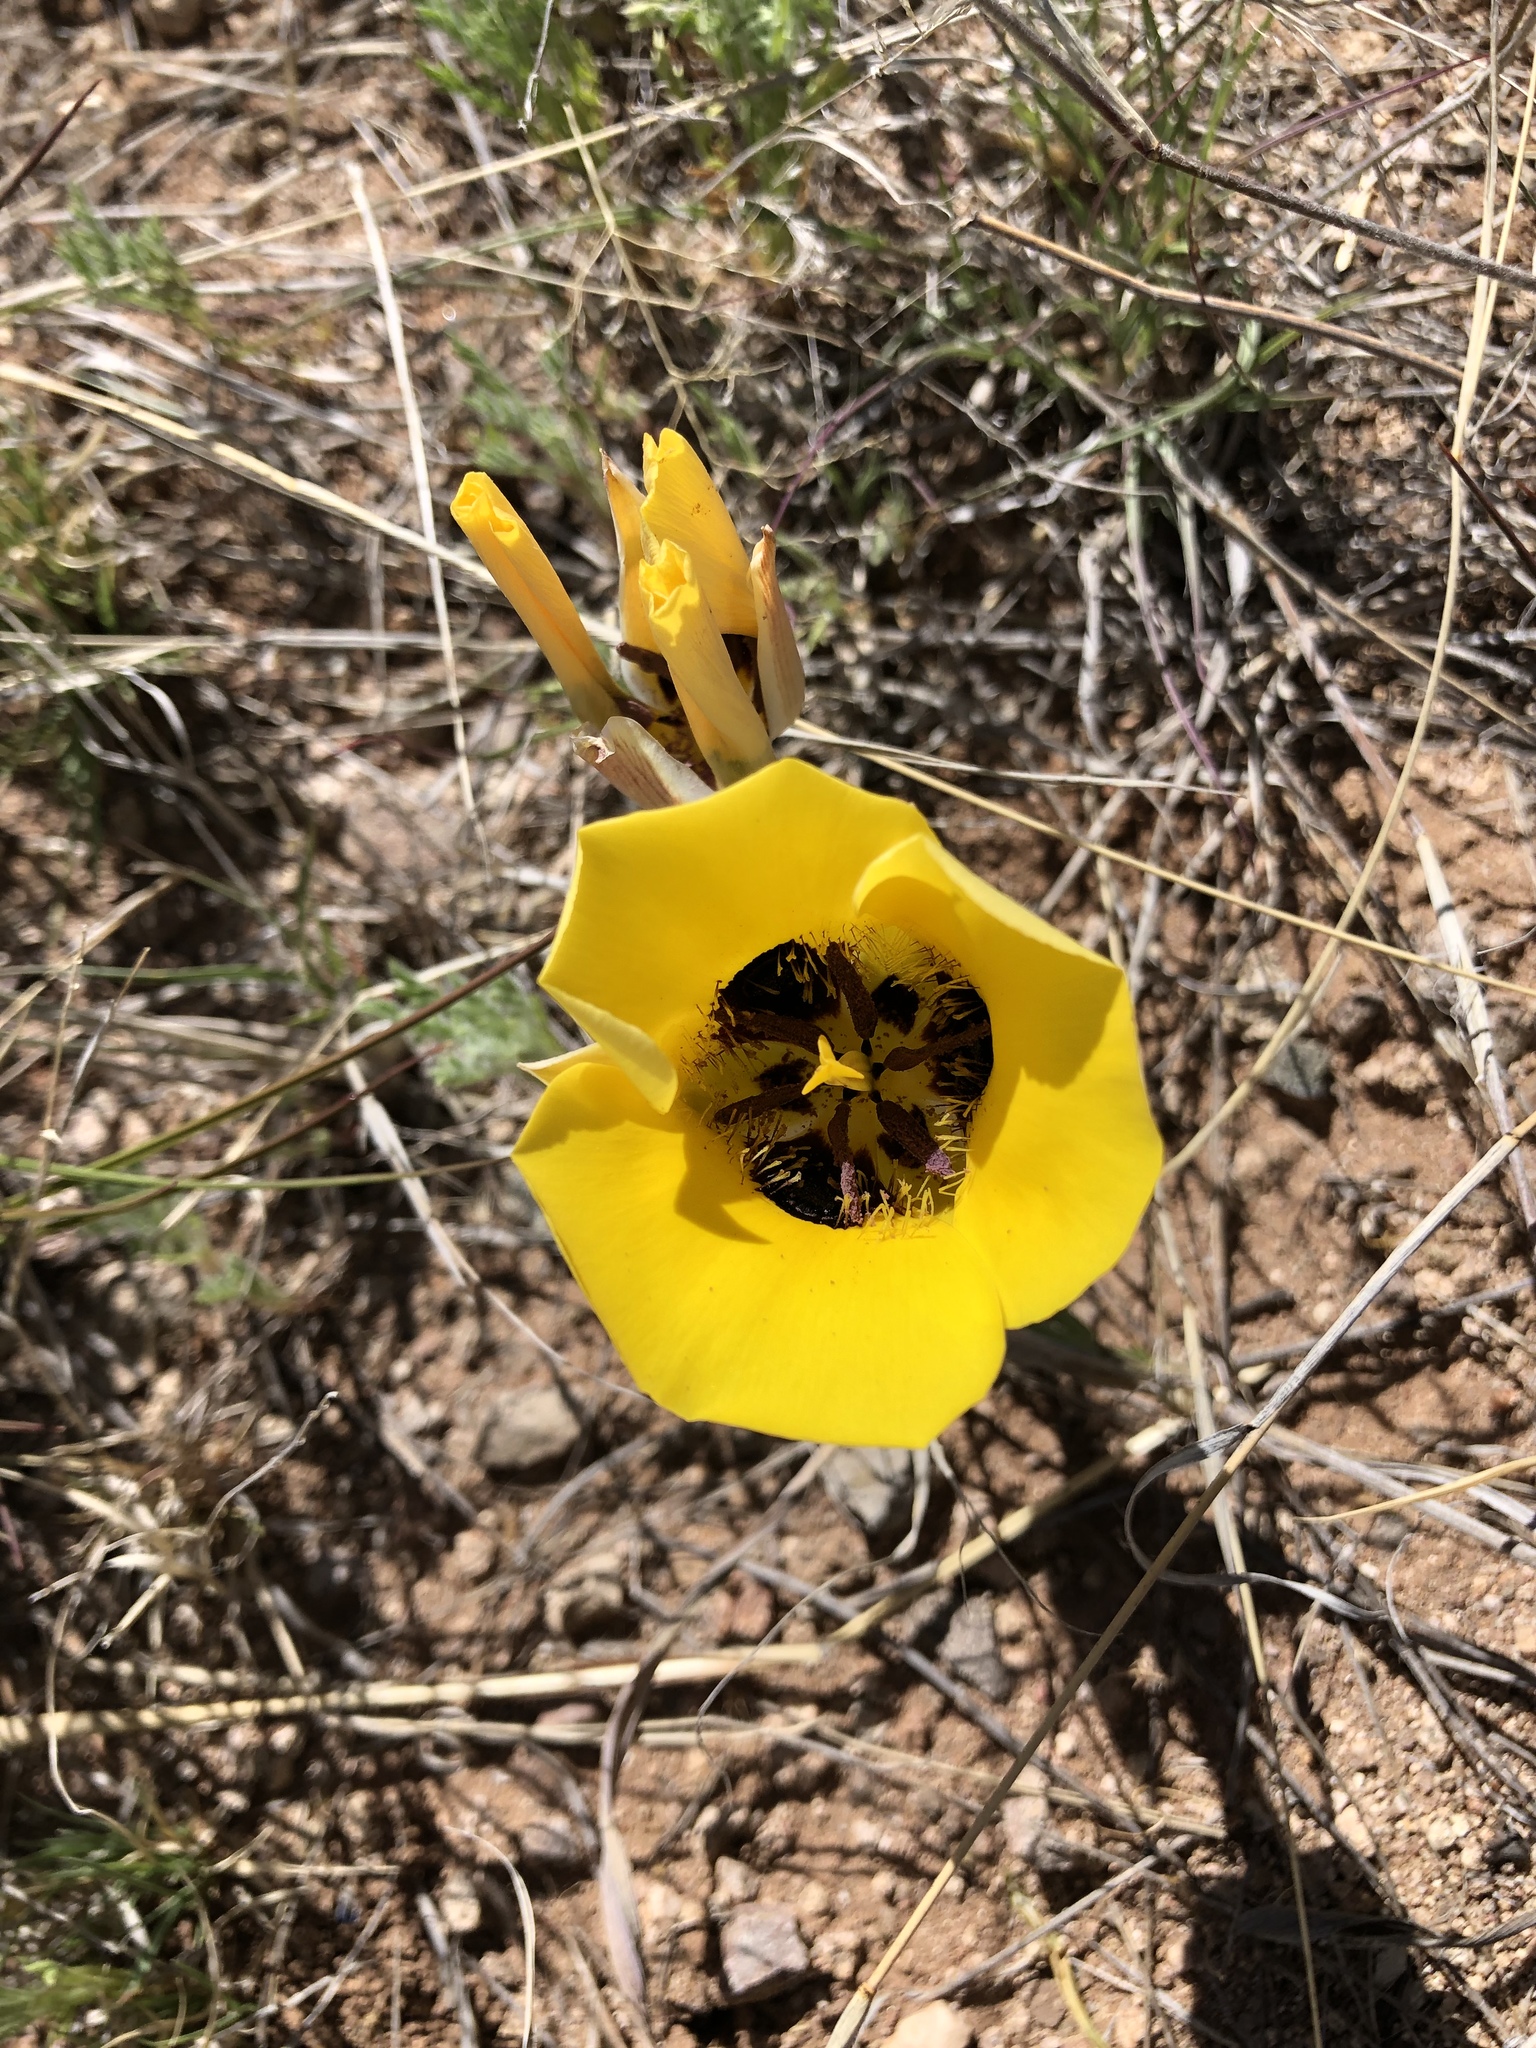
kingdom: Plantae
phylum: Tracheophyta
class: Liliopsida
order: Liliales
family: Liliaceae
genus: Calochortus
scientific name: Calochortus kennedyi
